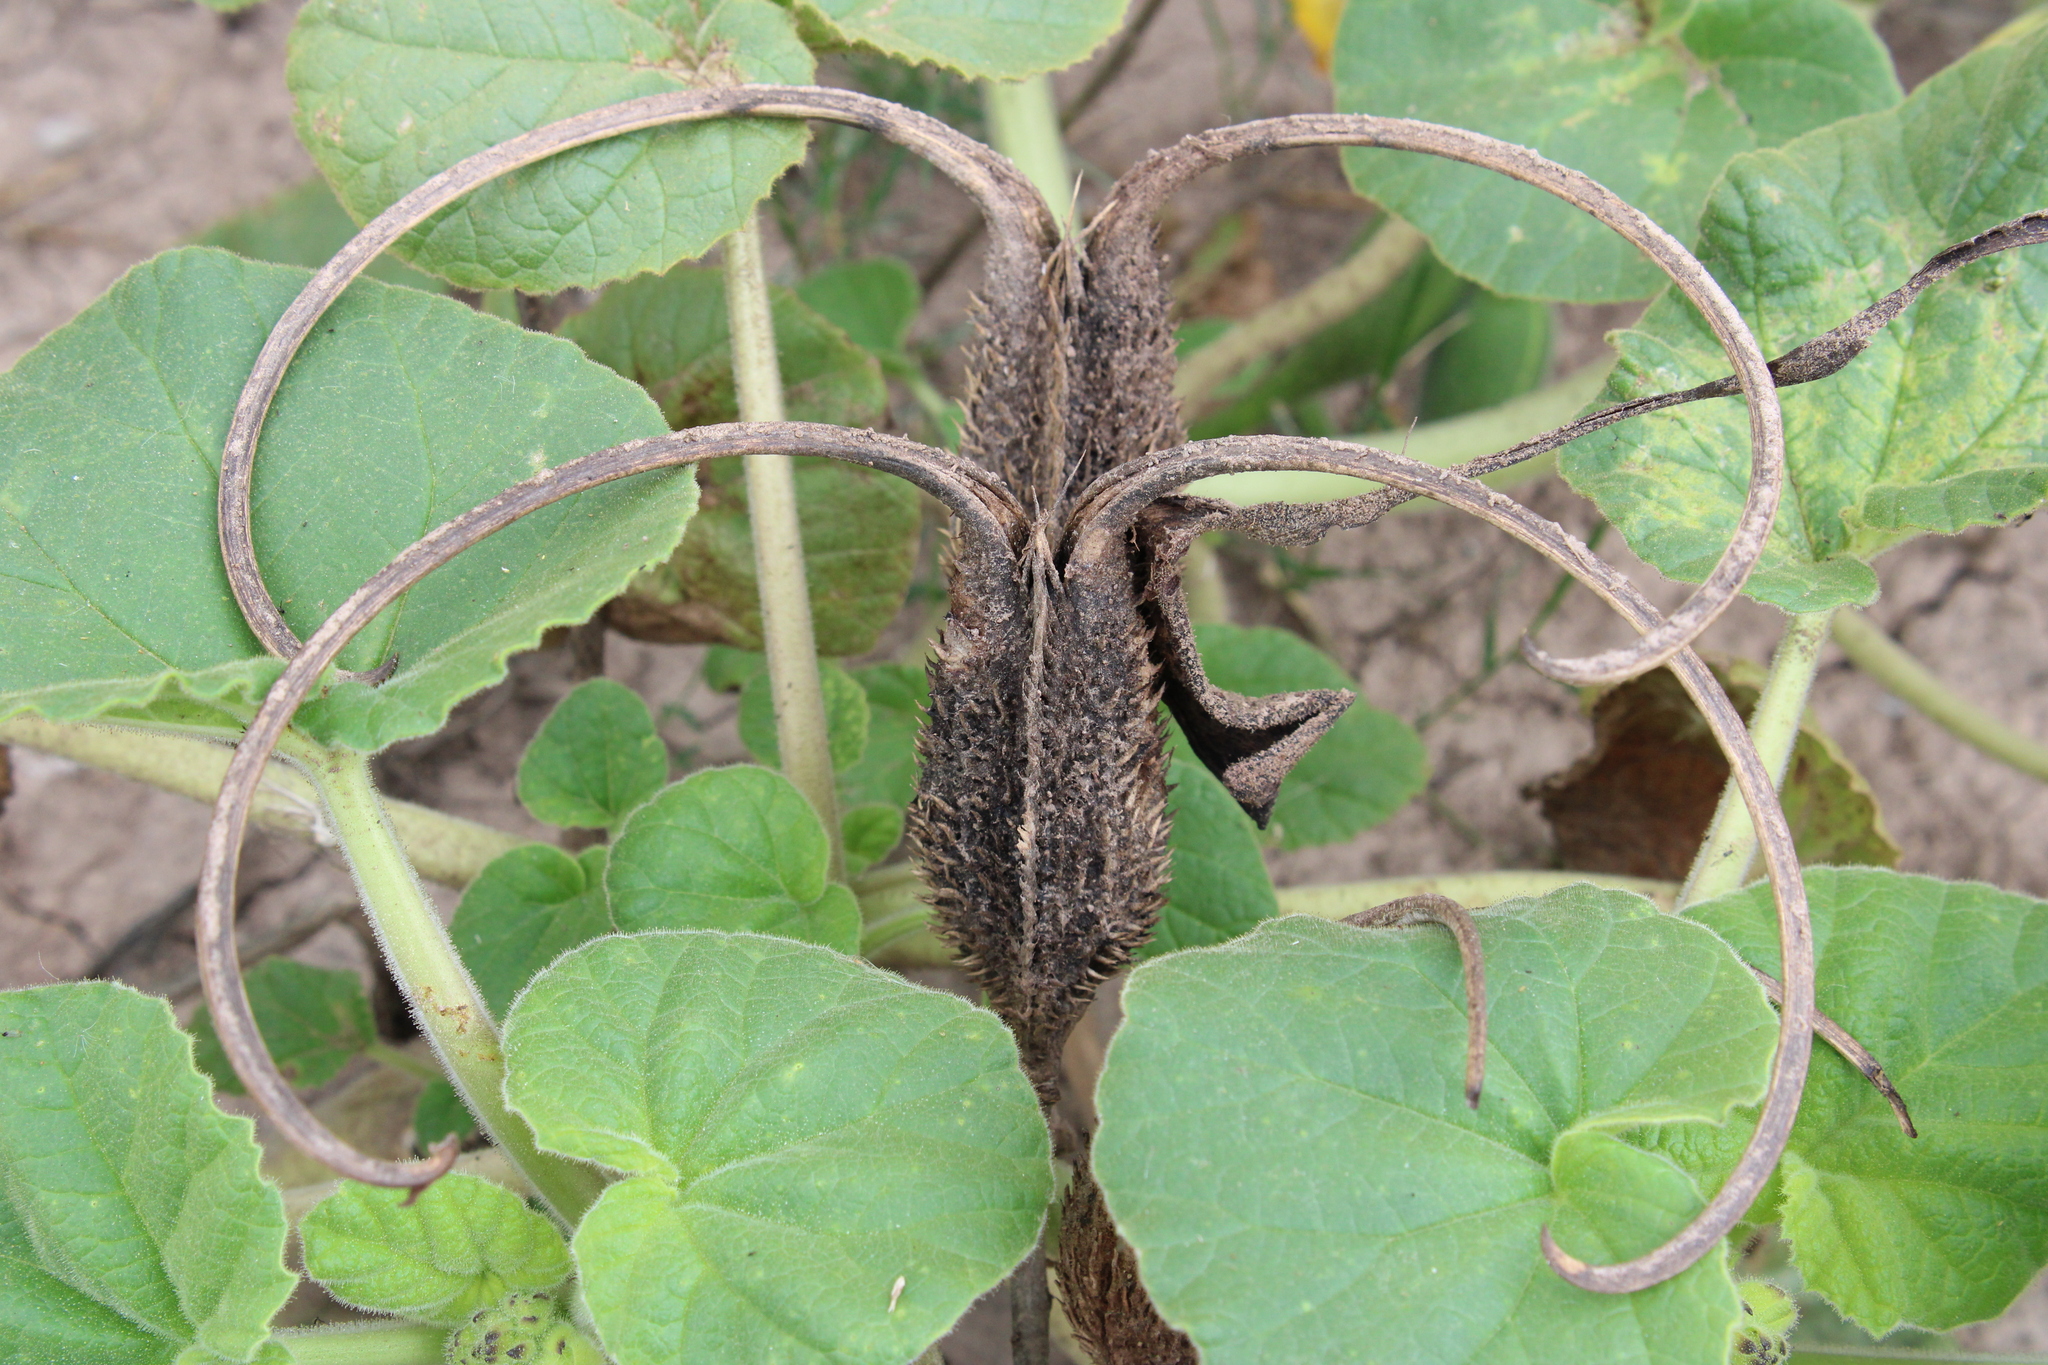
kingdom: Plantae
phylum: Tracheophyta
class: Magnoliopsida
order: Lamiales
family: Martyniaceae
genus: Ibicella
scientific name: Ibicella lutea
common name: Yellow unicorn-plant
